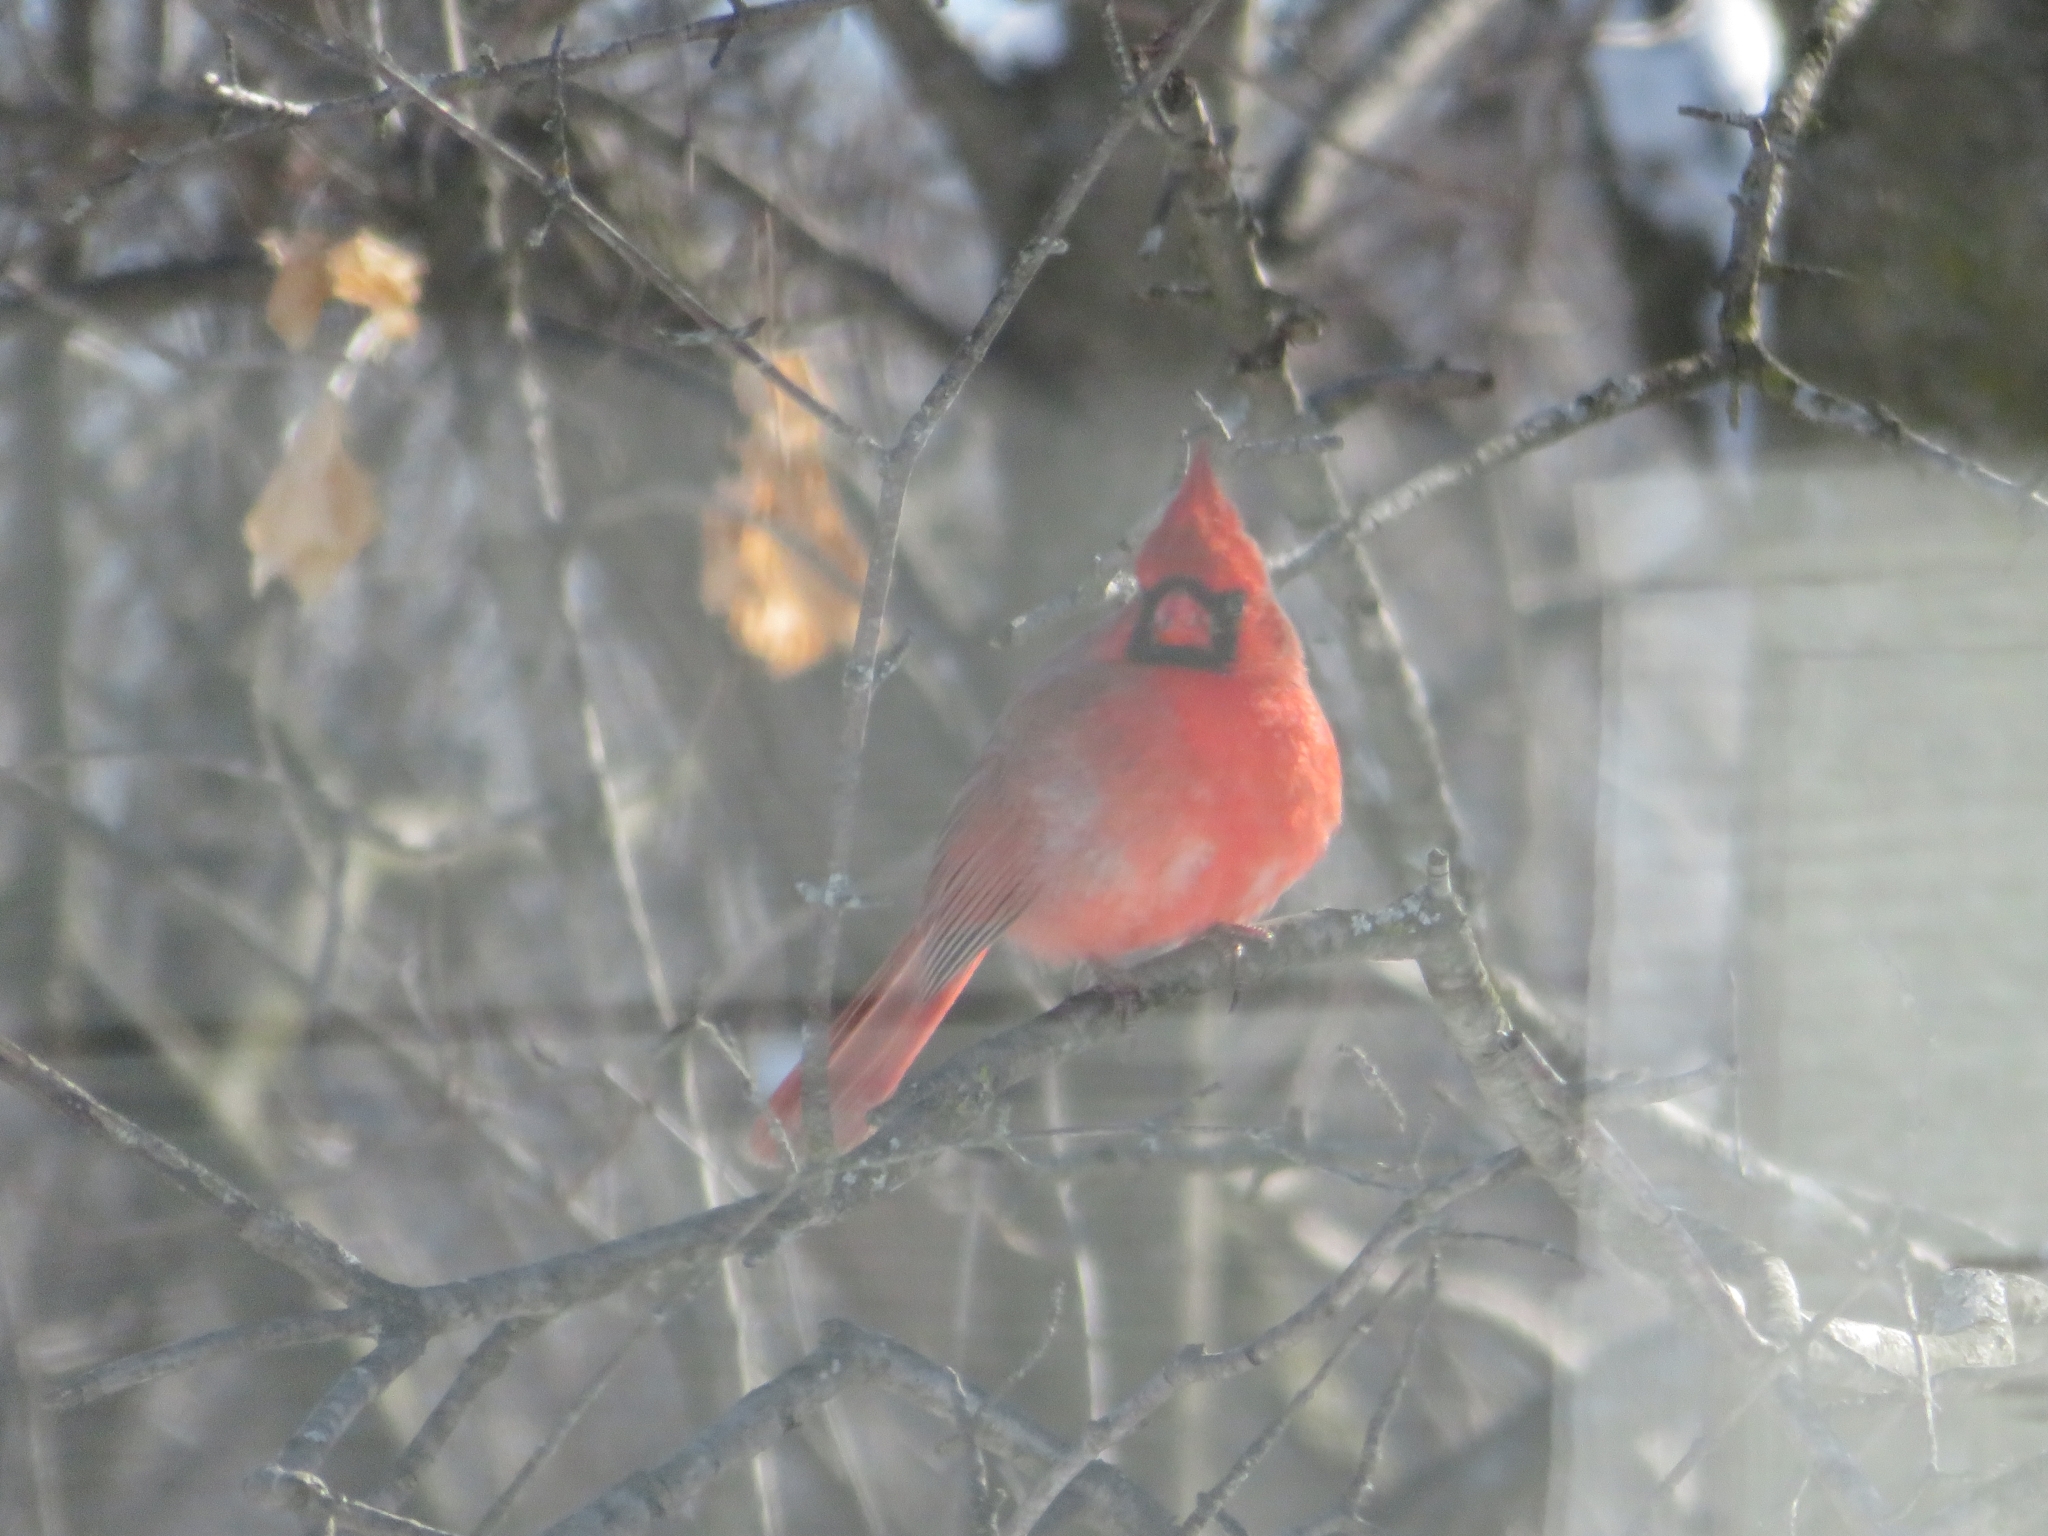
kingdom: Animalia
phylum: Chordata
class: Aves
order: Passeriformes
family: Cardinalidae
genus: Cardinalis
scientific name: Cardinalis cardinalis
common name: Northern cardinal
